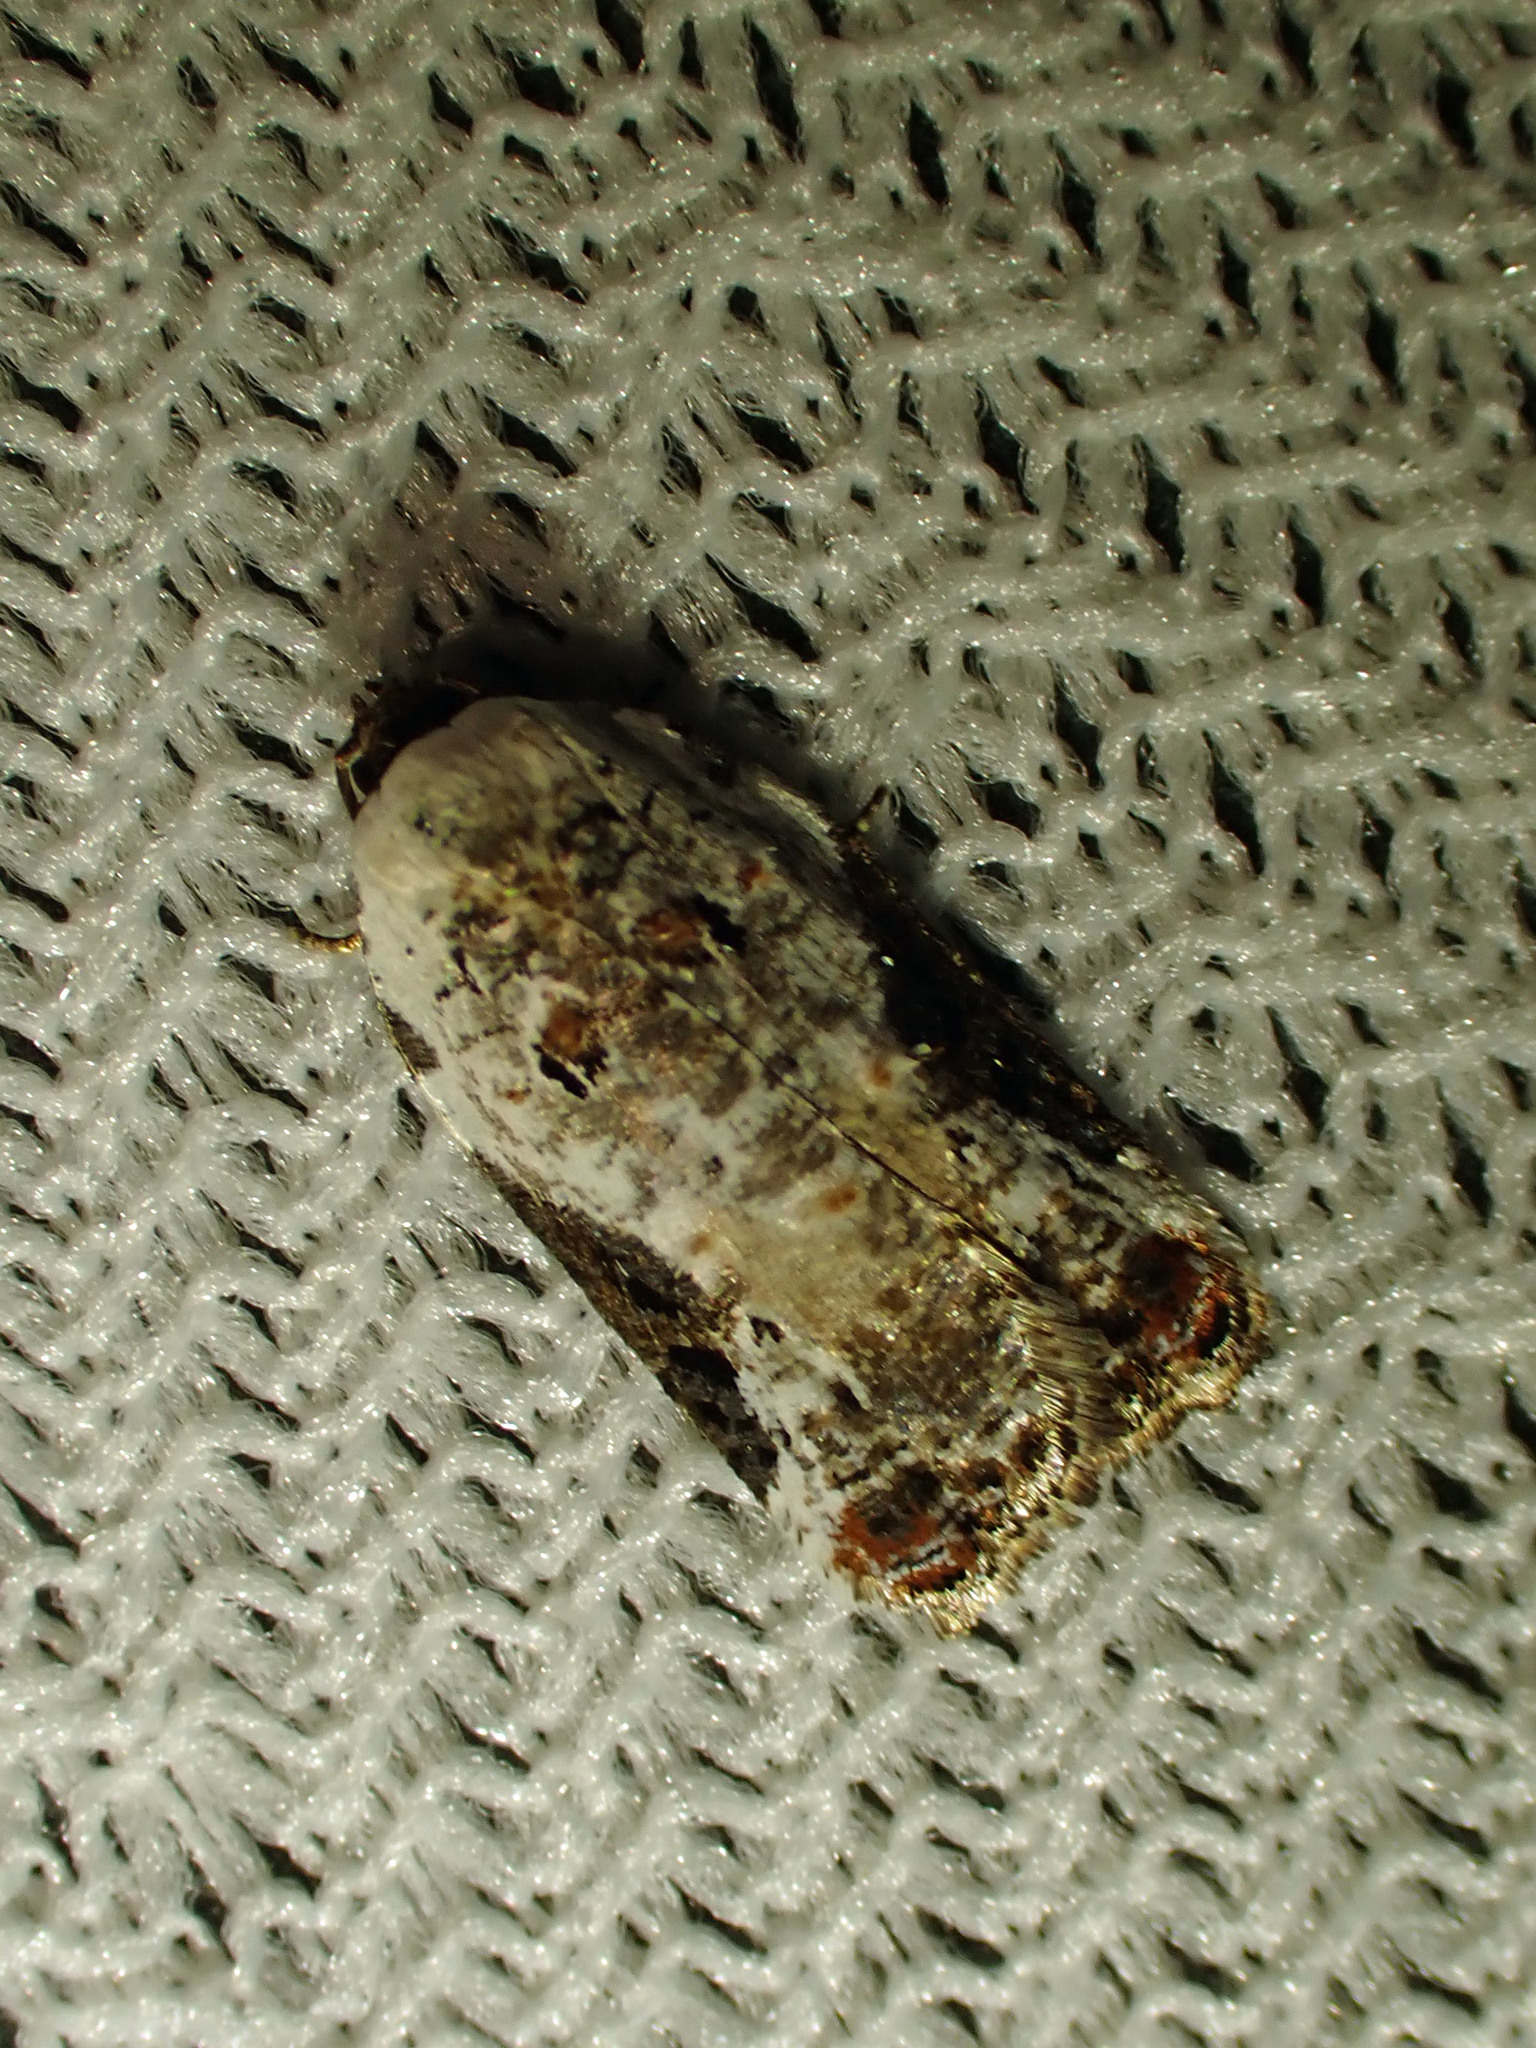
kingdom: Animalia
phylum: Arthropoda
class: Insecta
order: Lepidoptera
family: Tortricidae
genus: Acleris
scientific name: Acleris nivisellana
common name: Snowy-shouldered acleris moth
